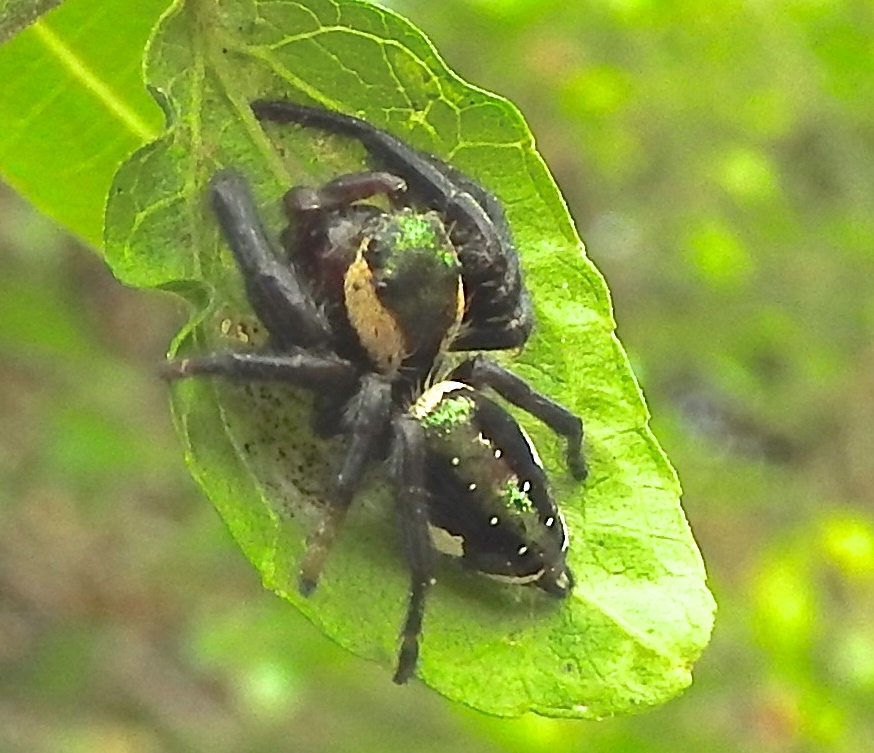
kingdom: Animalia
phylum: Arthropoda
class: Arachnida
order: Araneae
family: Salticidae
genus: Paraphidippus
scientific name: Paraphidippus aurantius
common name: Jumping spiders
